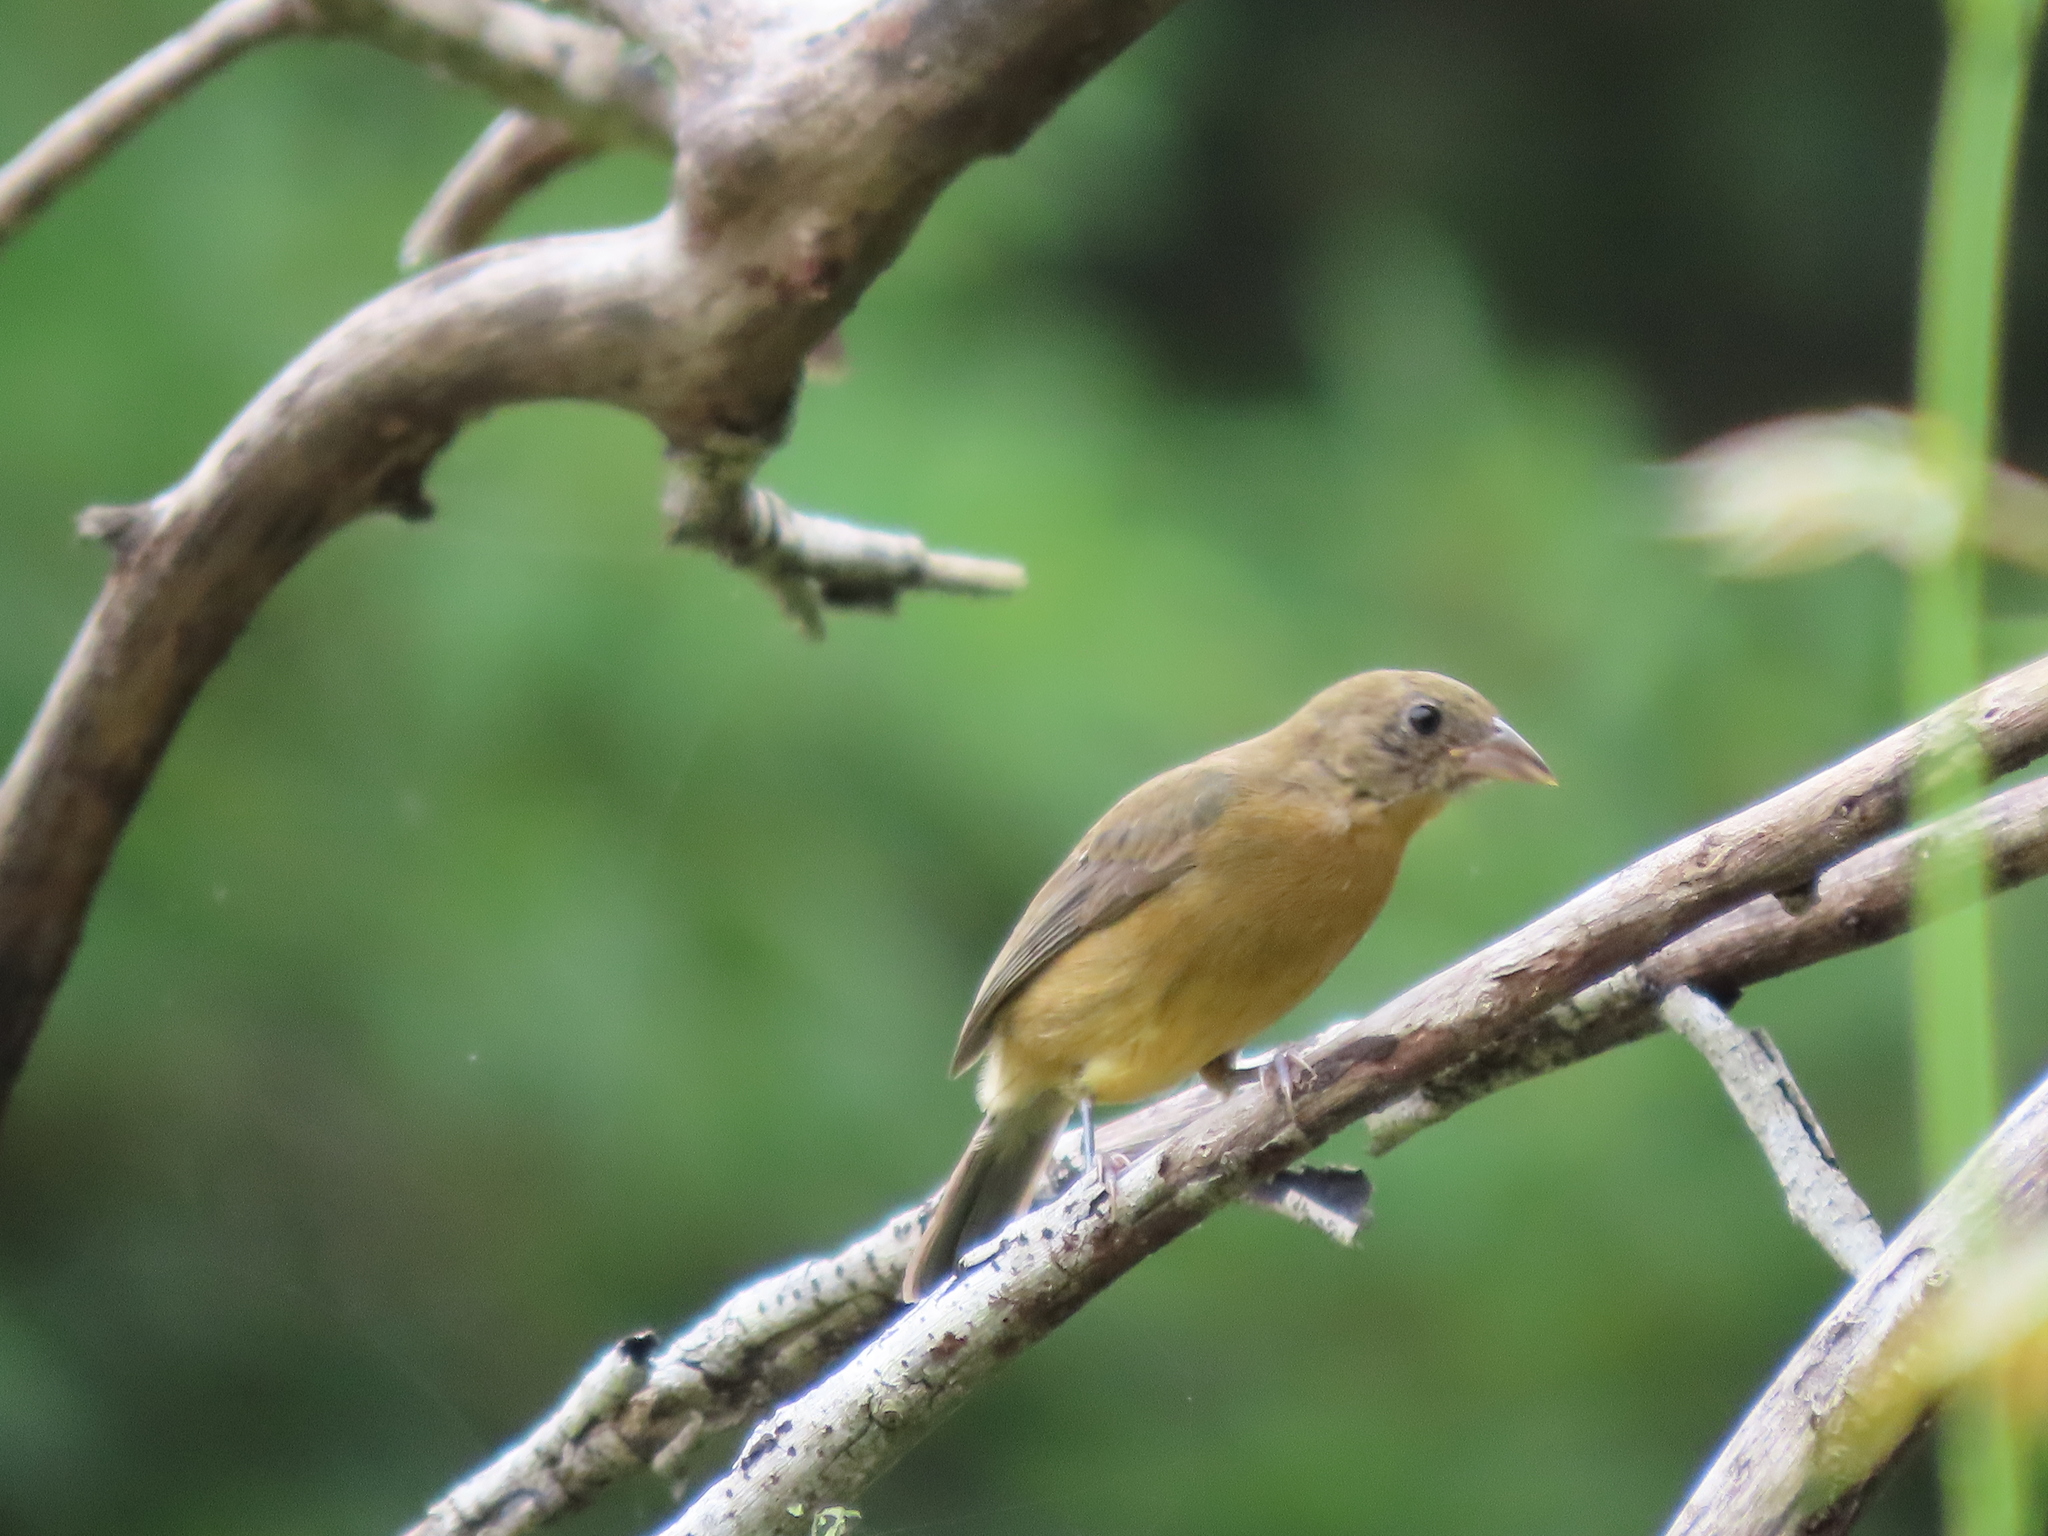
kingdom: Animalia
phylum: Chordata
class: Aves
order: Passeriformes
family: Cardinalidae
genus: Passerina
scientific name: Passerina rositae
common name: Rose-bellied bunting
